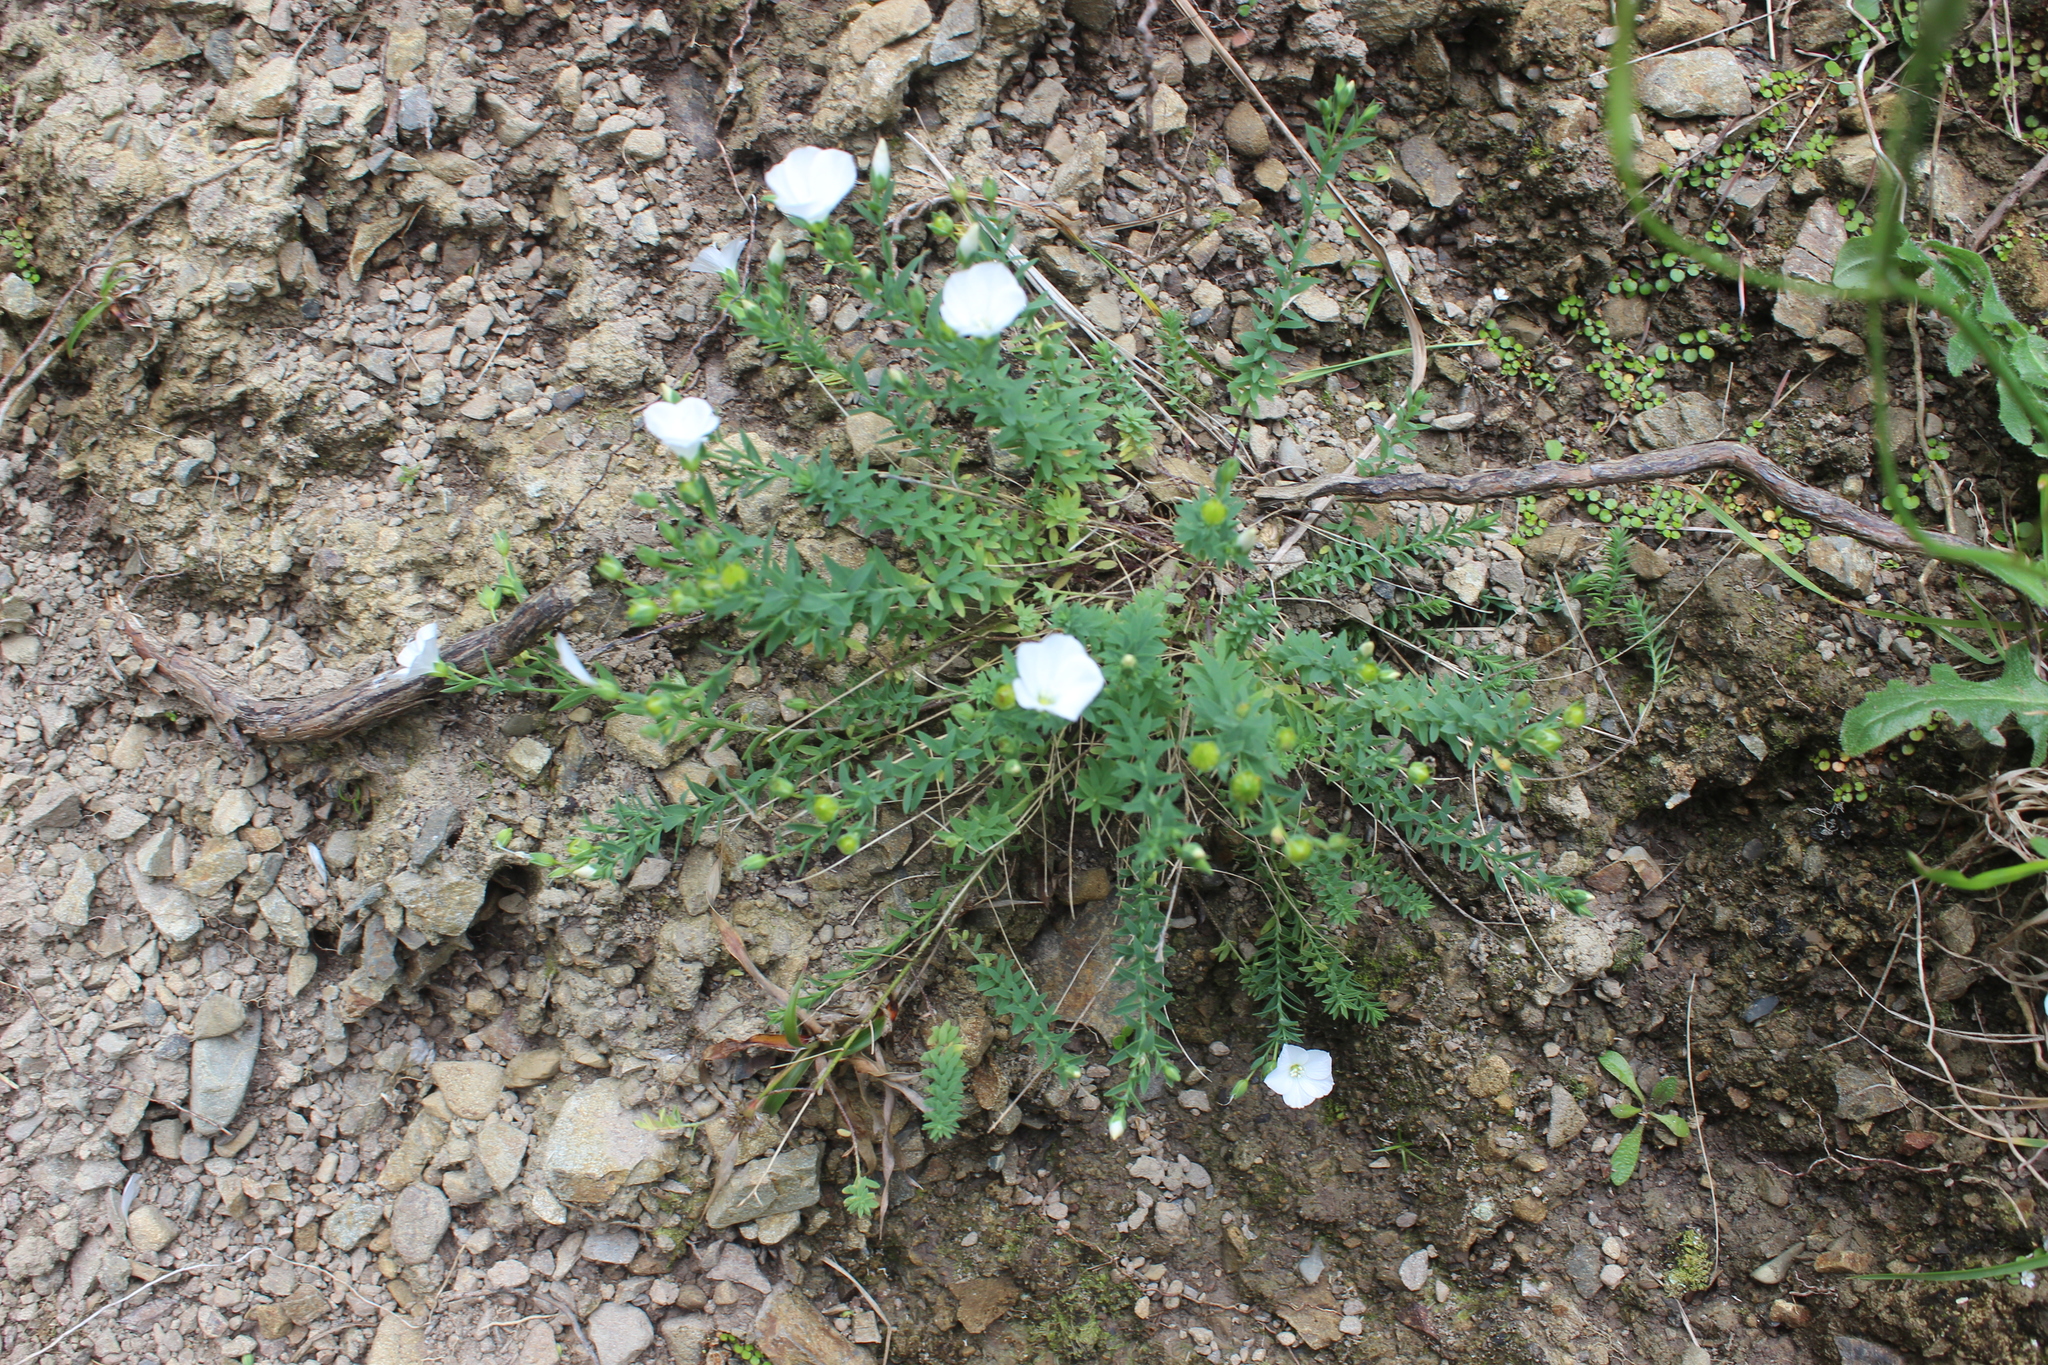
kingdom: Plantae
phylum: Tracheophyta
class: Magnoliopsida
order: Malpighiales
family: Linaceae
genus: Linum
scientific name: Linum monogynum
